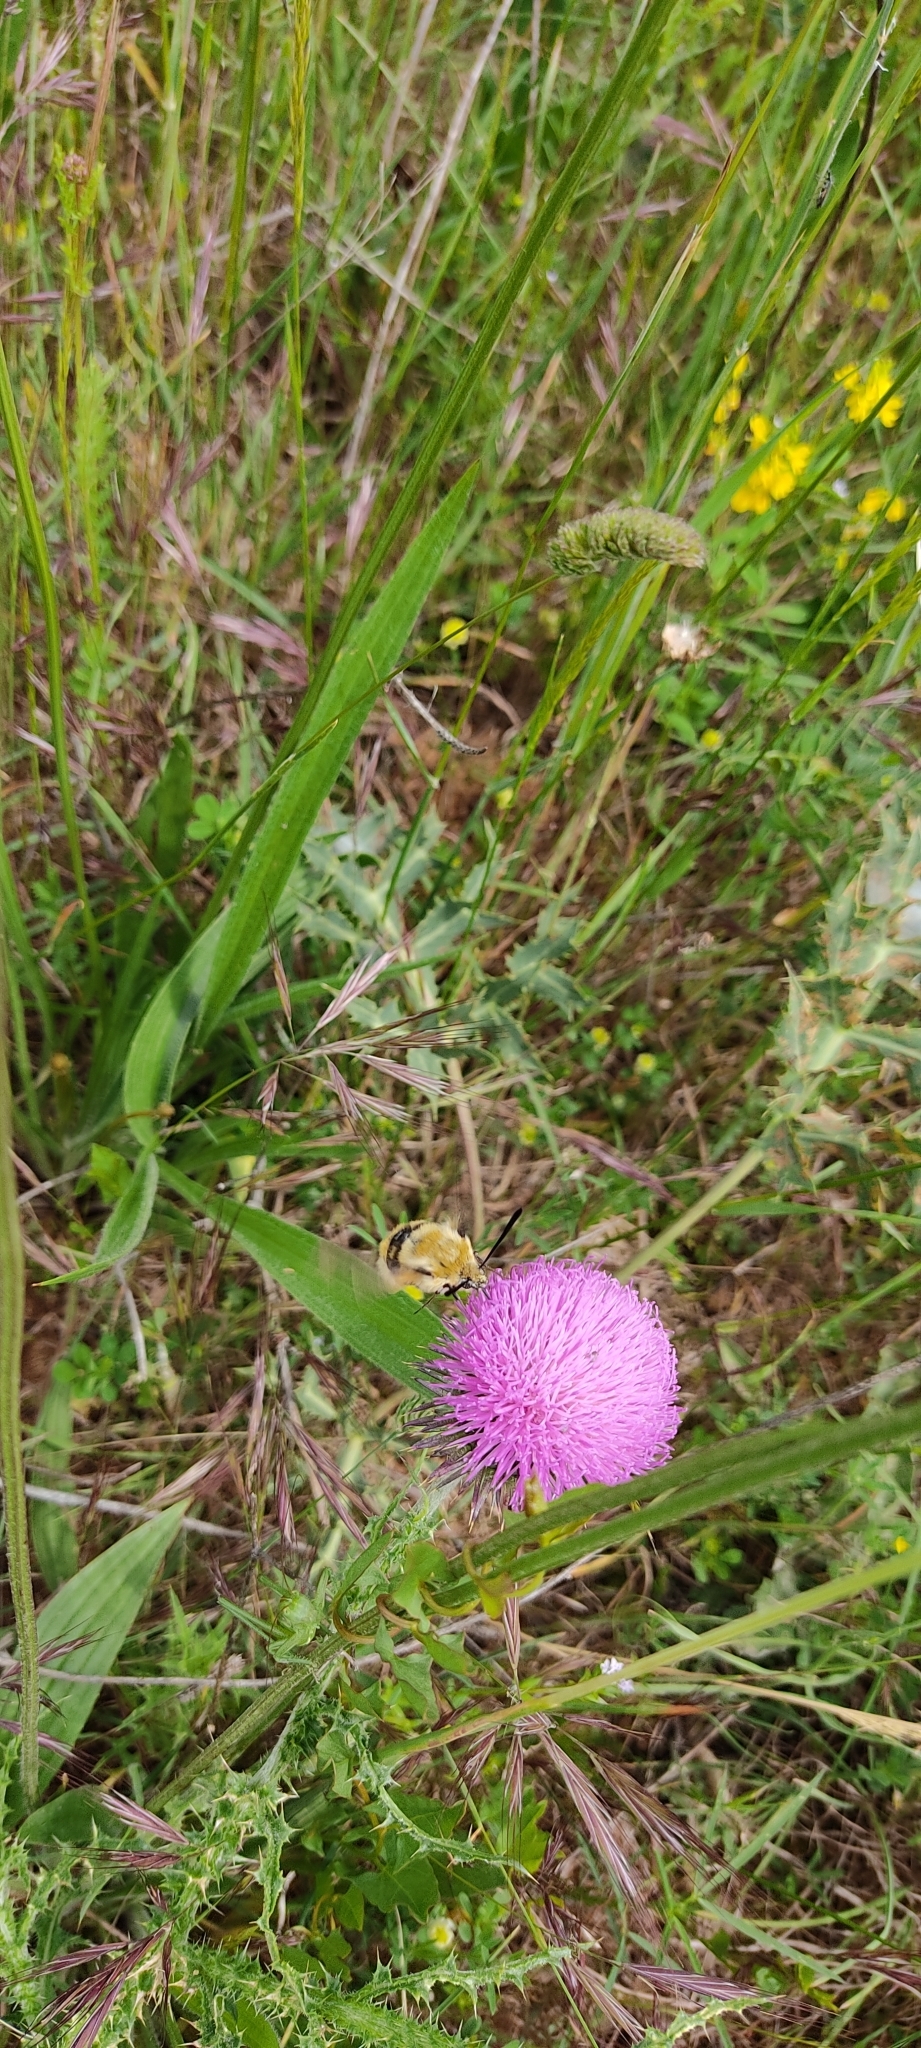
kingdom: Animalia
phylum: Arthropoda
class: Insecta
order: Lepidoptera
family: Sphingidae
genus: Hemaris
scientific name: Hemaris tityus
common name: Narrow-bordered bee hawk-moth
